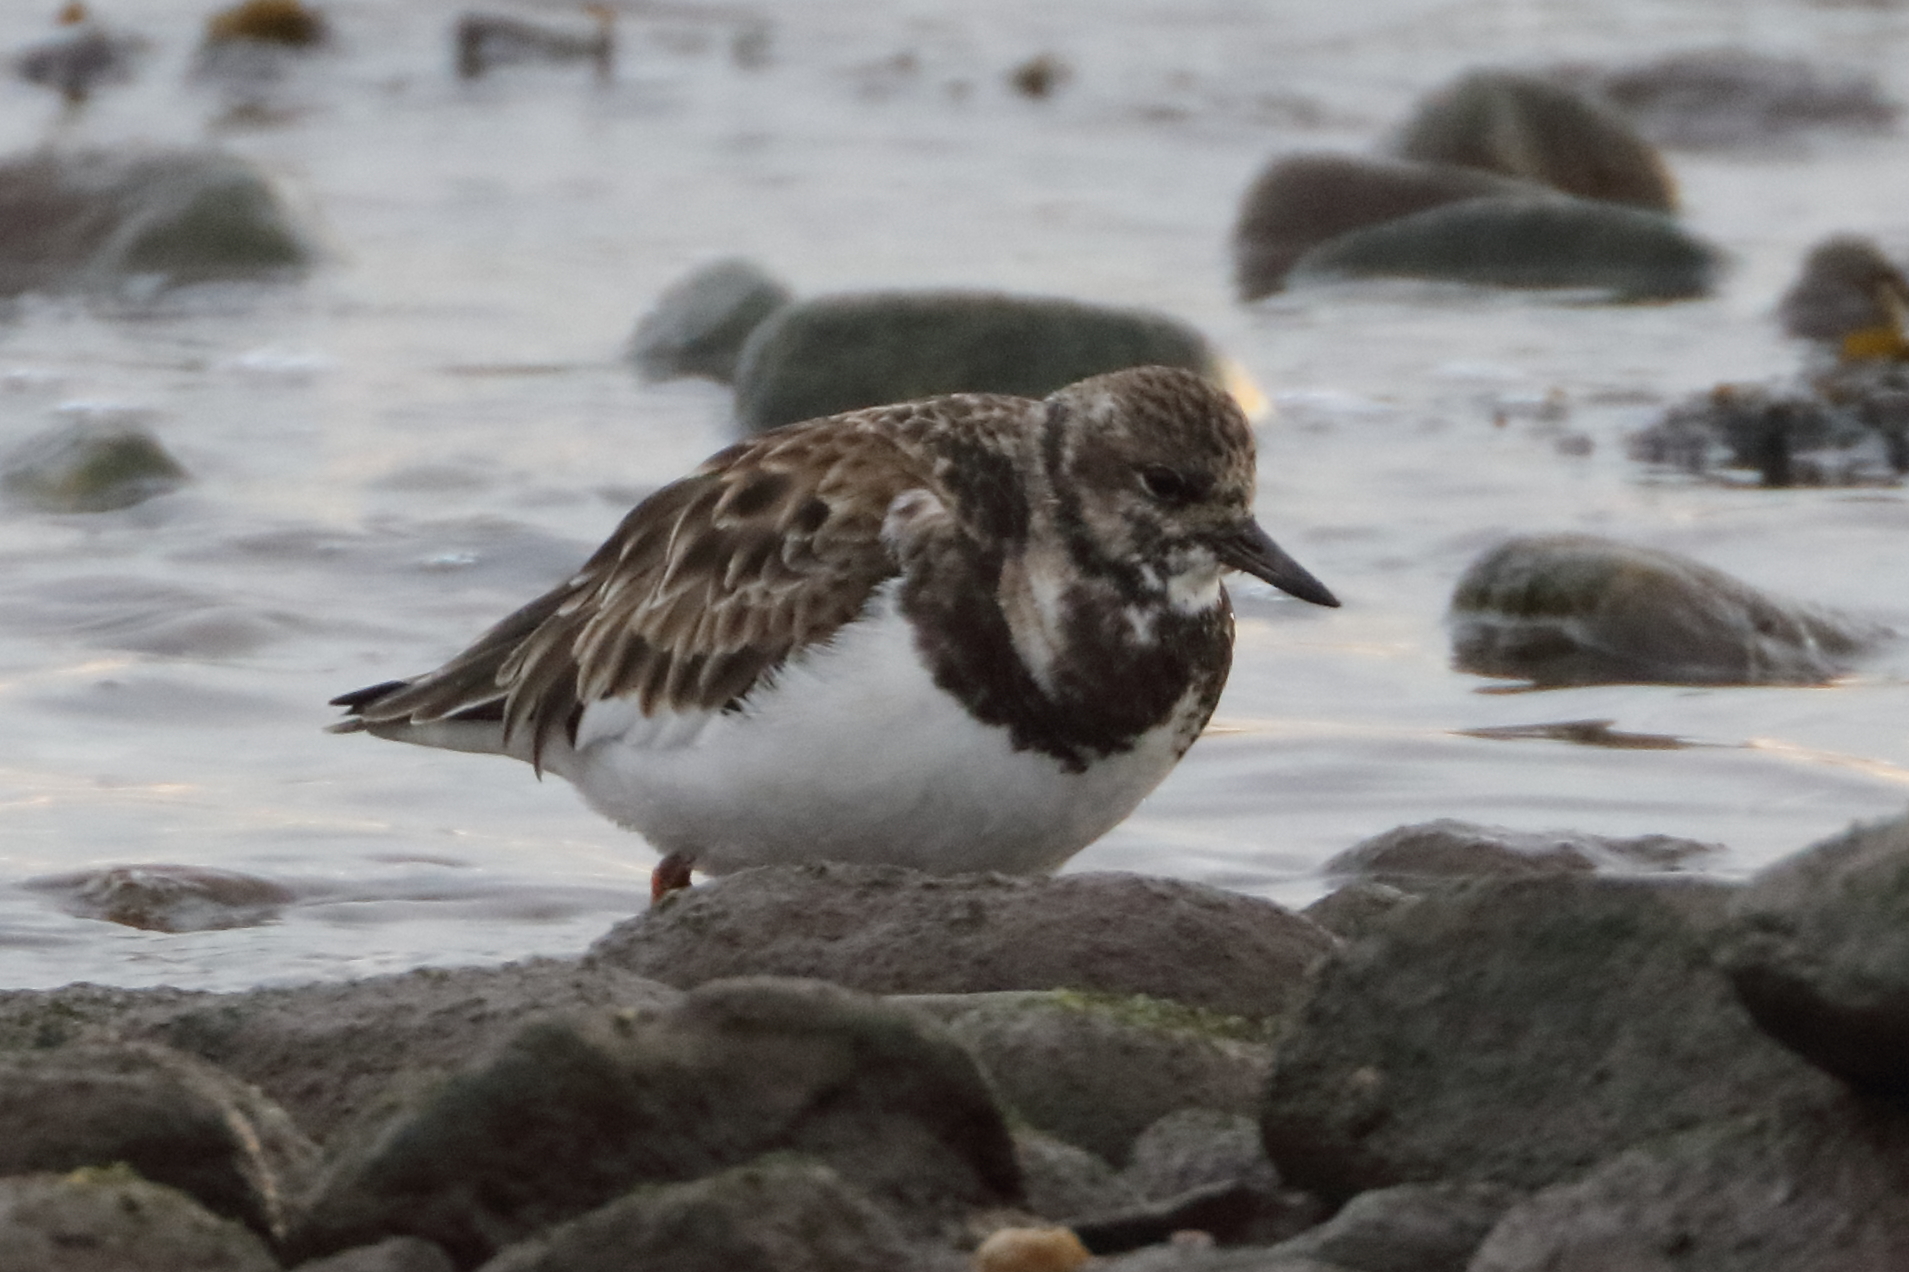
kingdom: Animalia
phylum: Chordata
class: Aves
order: Charadriiformes
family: Scolopacidae
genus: Arenaria
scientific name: Arenaria interpres
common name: Ruddy turnstone
